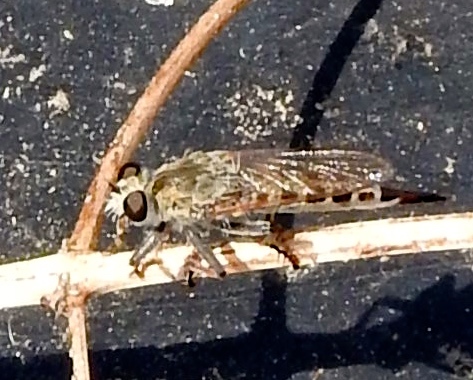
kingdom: Animalia
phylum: Arthropoda
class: Insecta
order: Diptera
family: Asilidae
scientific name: Asilidae
